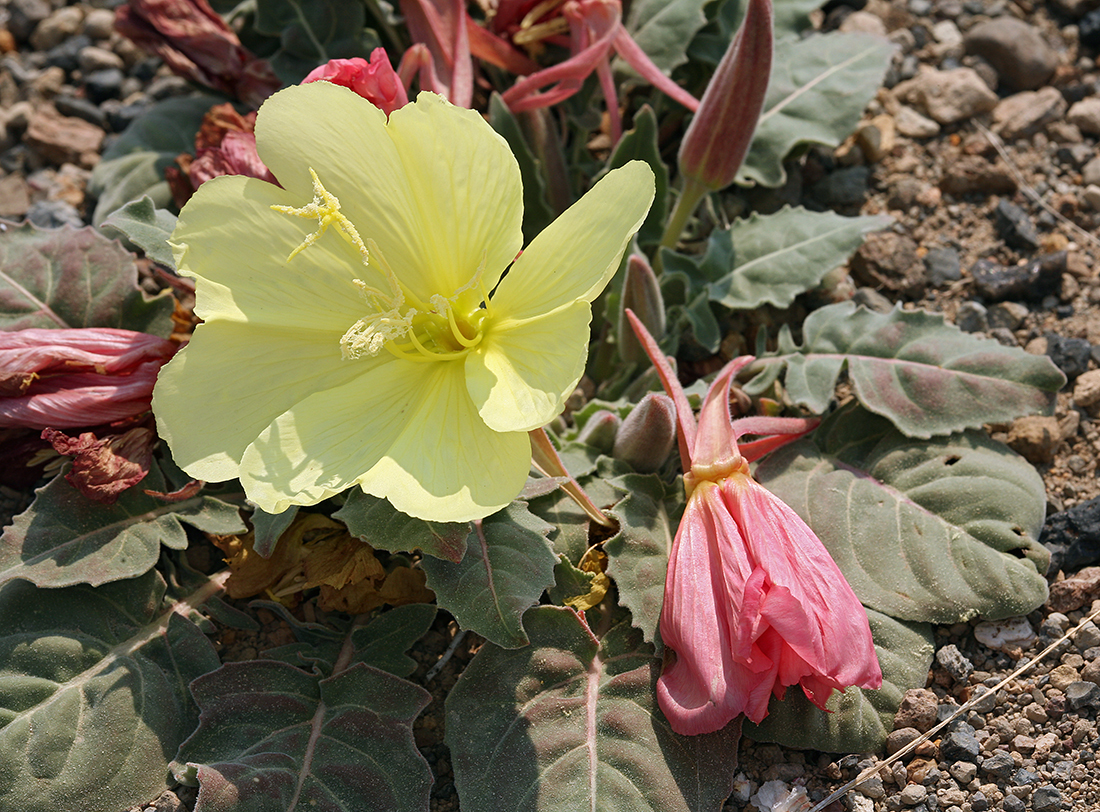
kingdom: Plantae
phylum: Tracheophyta
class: Magnoliopsida
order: Myrtales
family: Onagraceae
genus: Oenothera
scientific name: Oenothera xylocarpa
